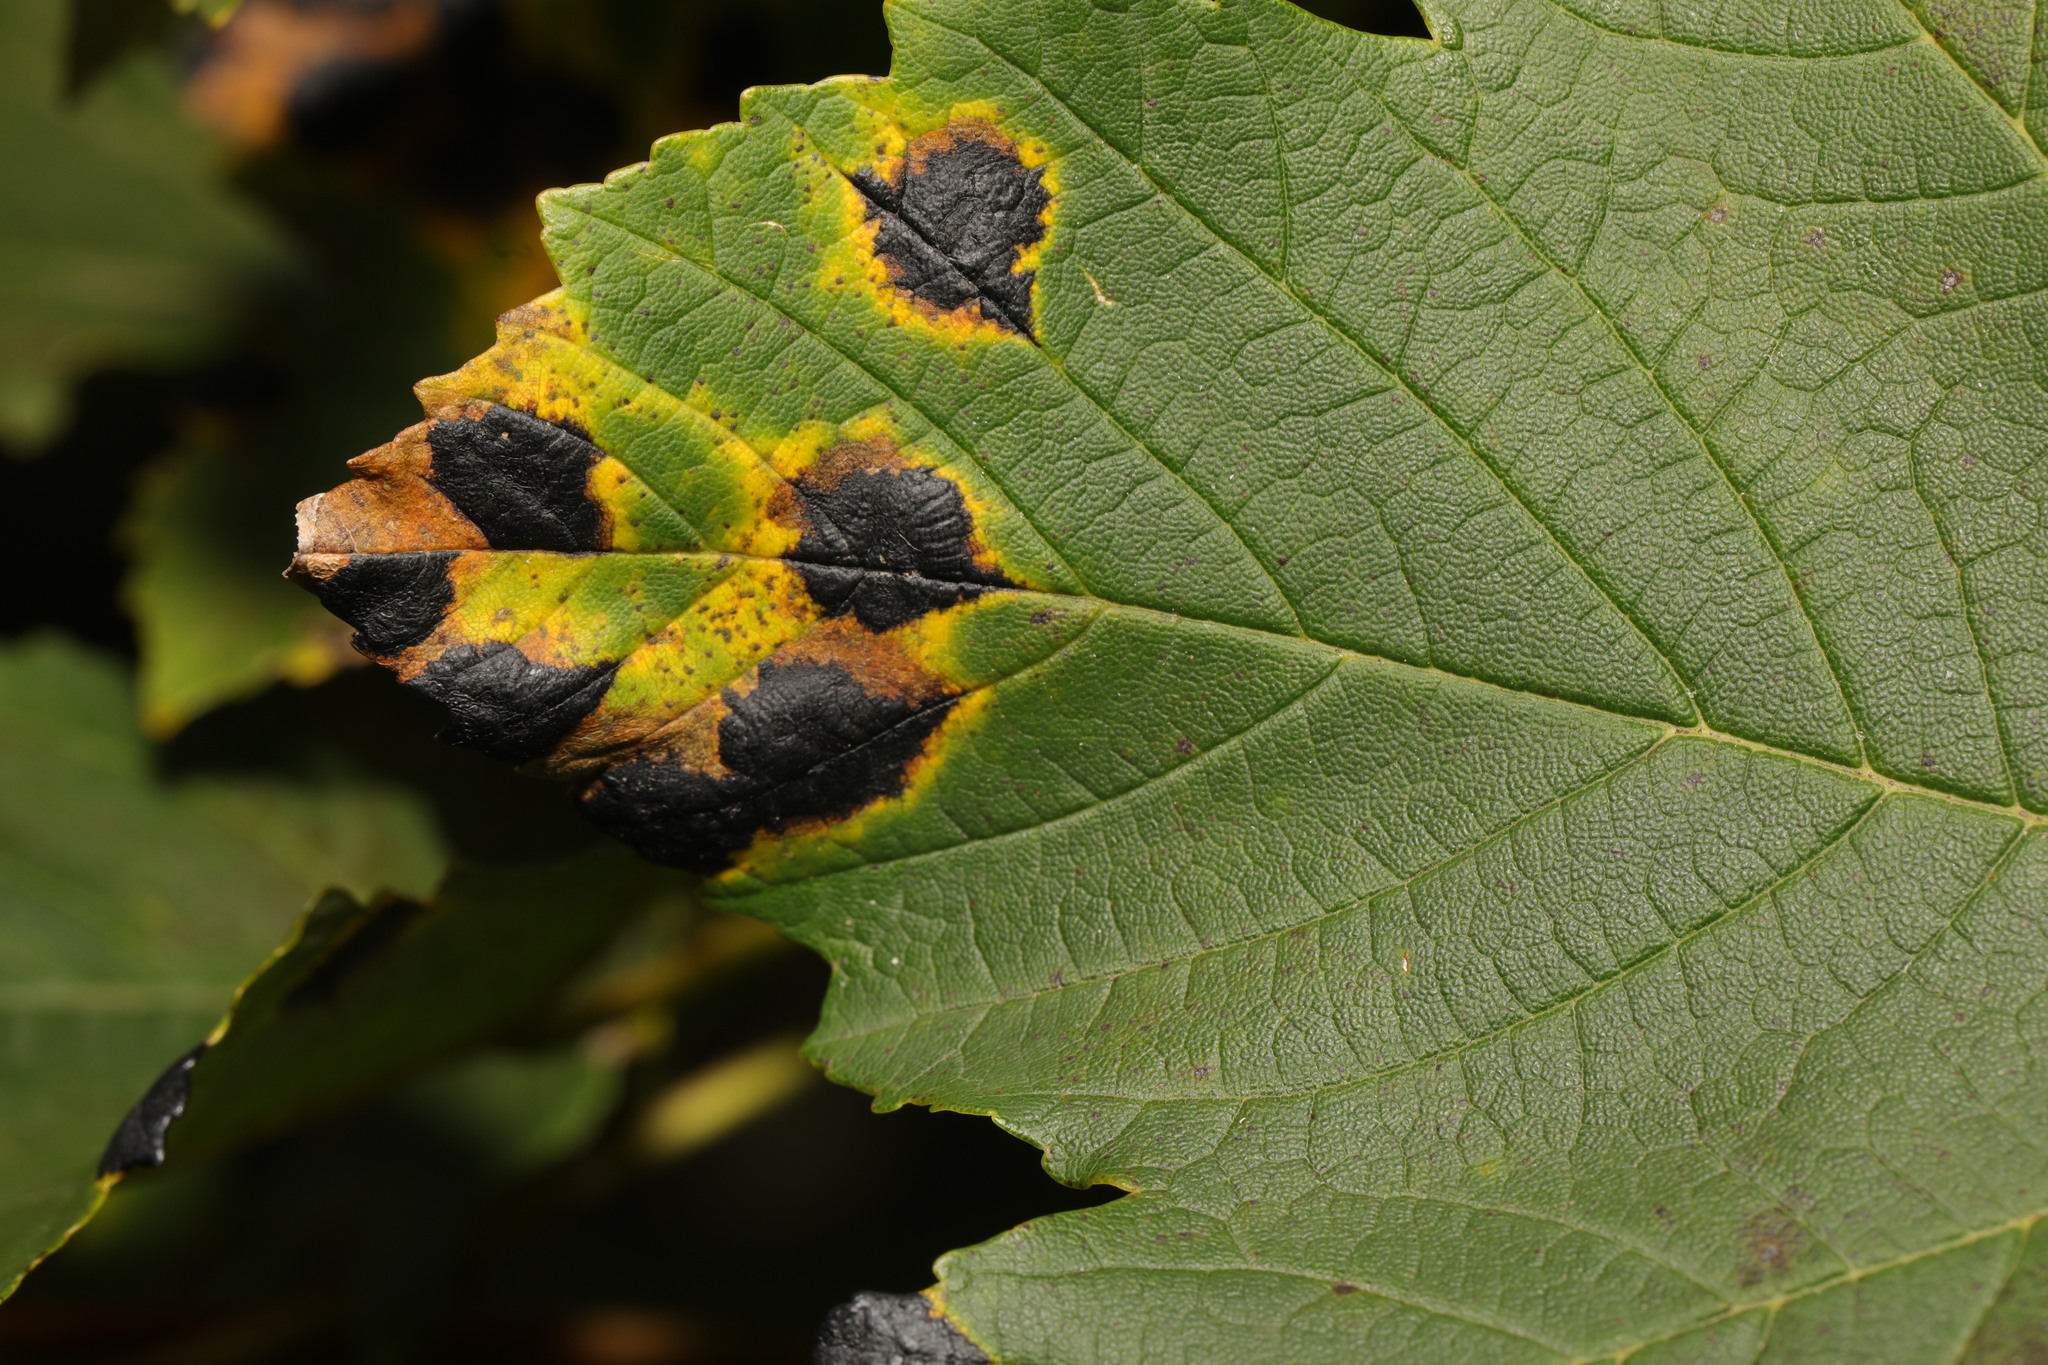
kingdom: Fungi
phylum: Ascomycota
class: Leotiomycetes
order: Rhytismatales
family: Rhytismataceae
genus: Rhytisma
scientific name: Rhytisma acerinum
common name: European tar spot
